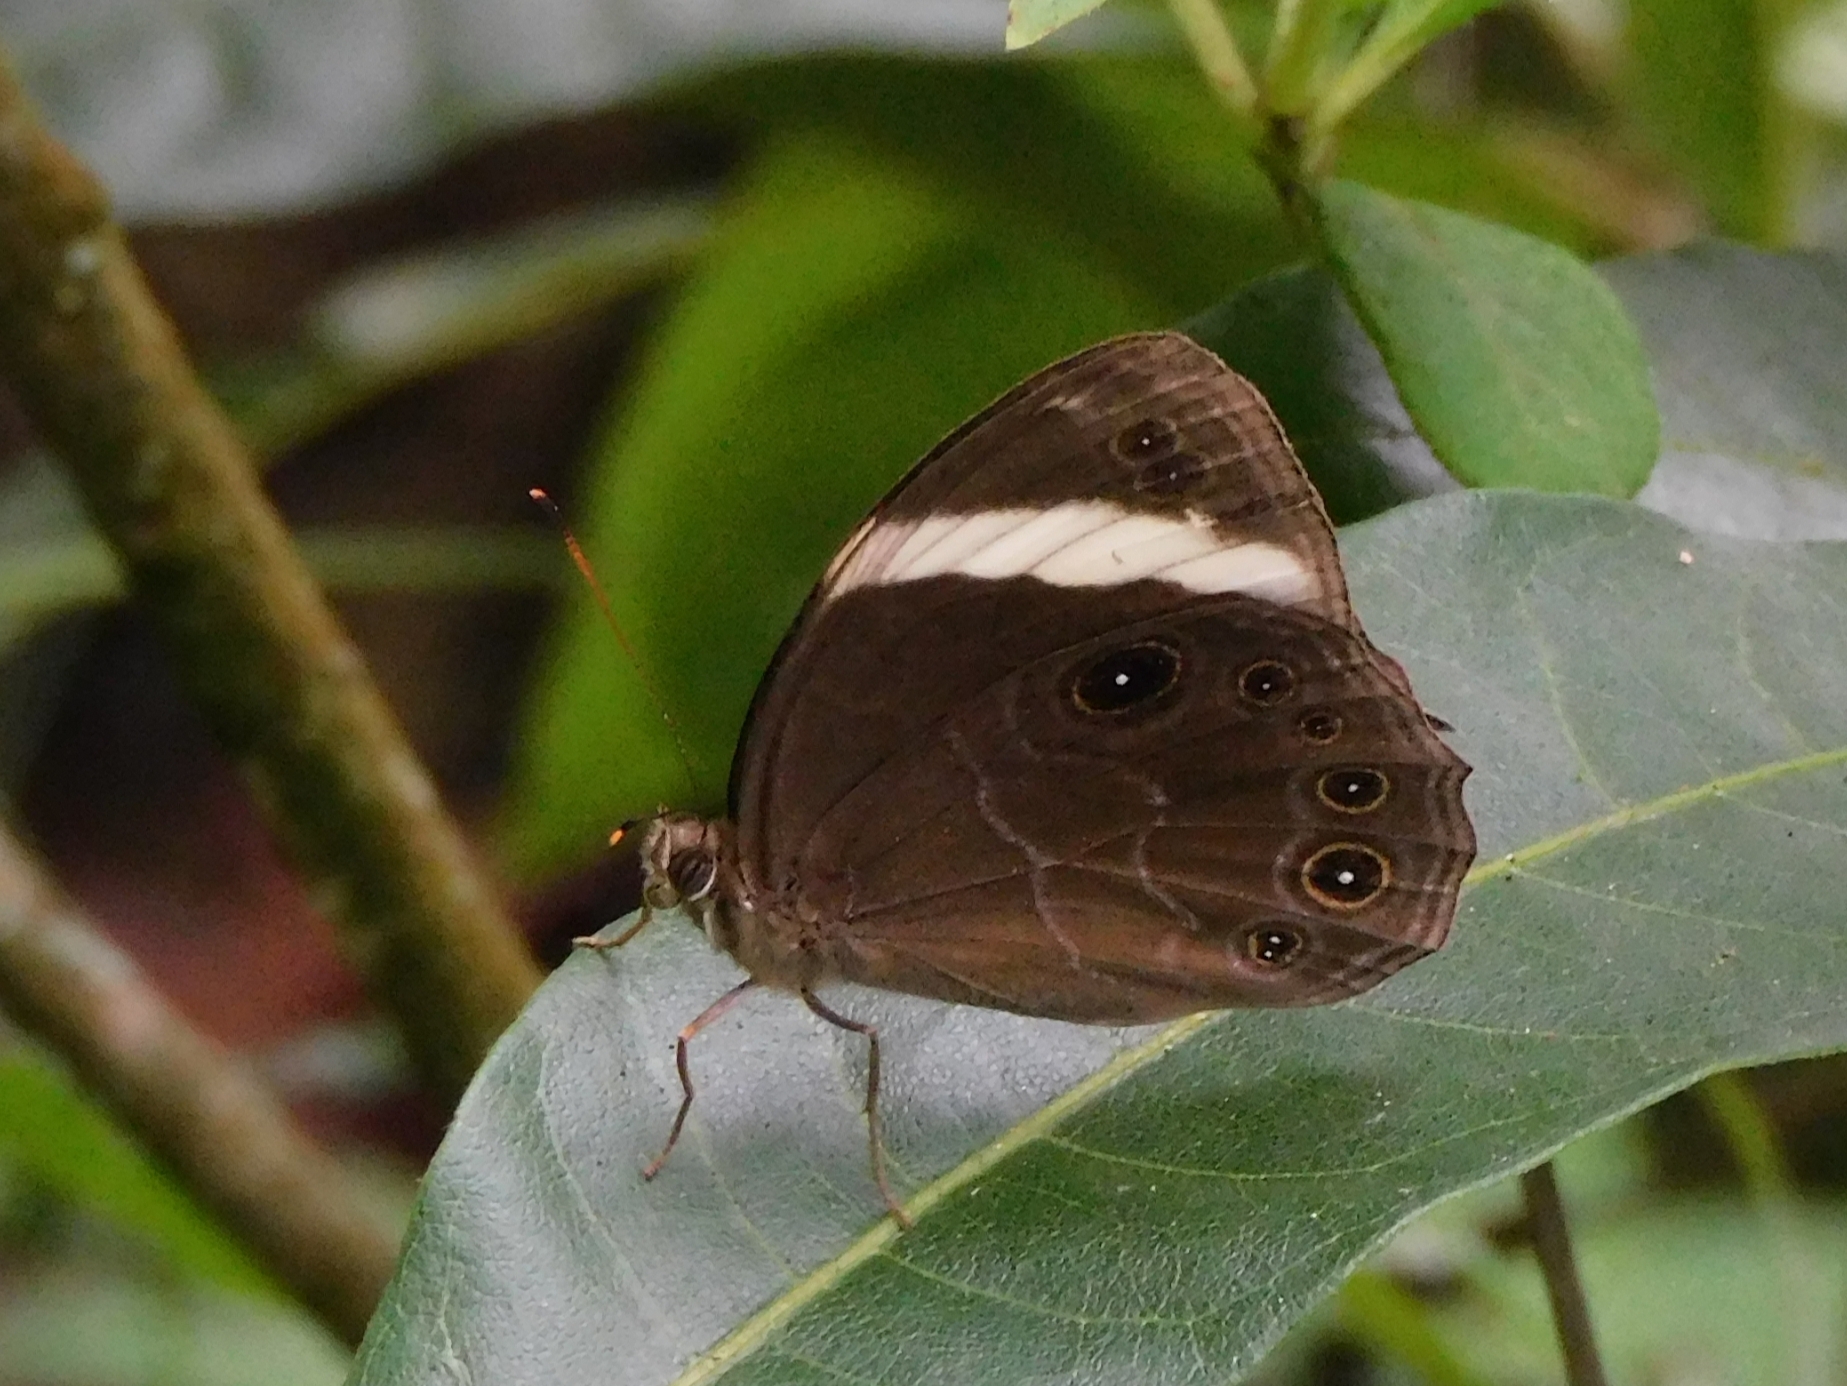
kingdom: Animalia
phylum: Arthropoda
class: Insecta
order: Lepidoptera
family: Nymphalidae
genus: Lethe
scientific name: Lethe verma
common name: Straight-banded treebrown
